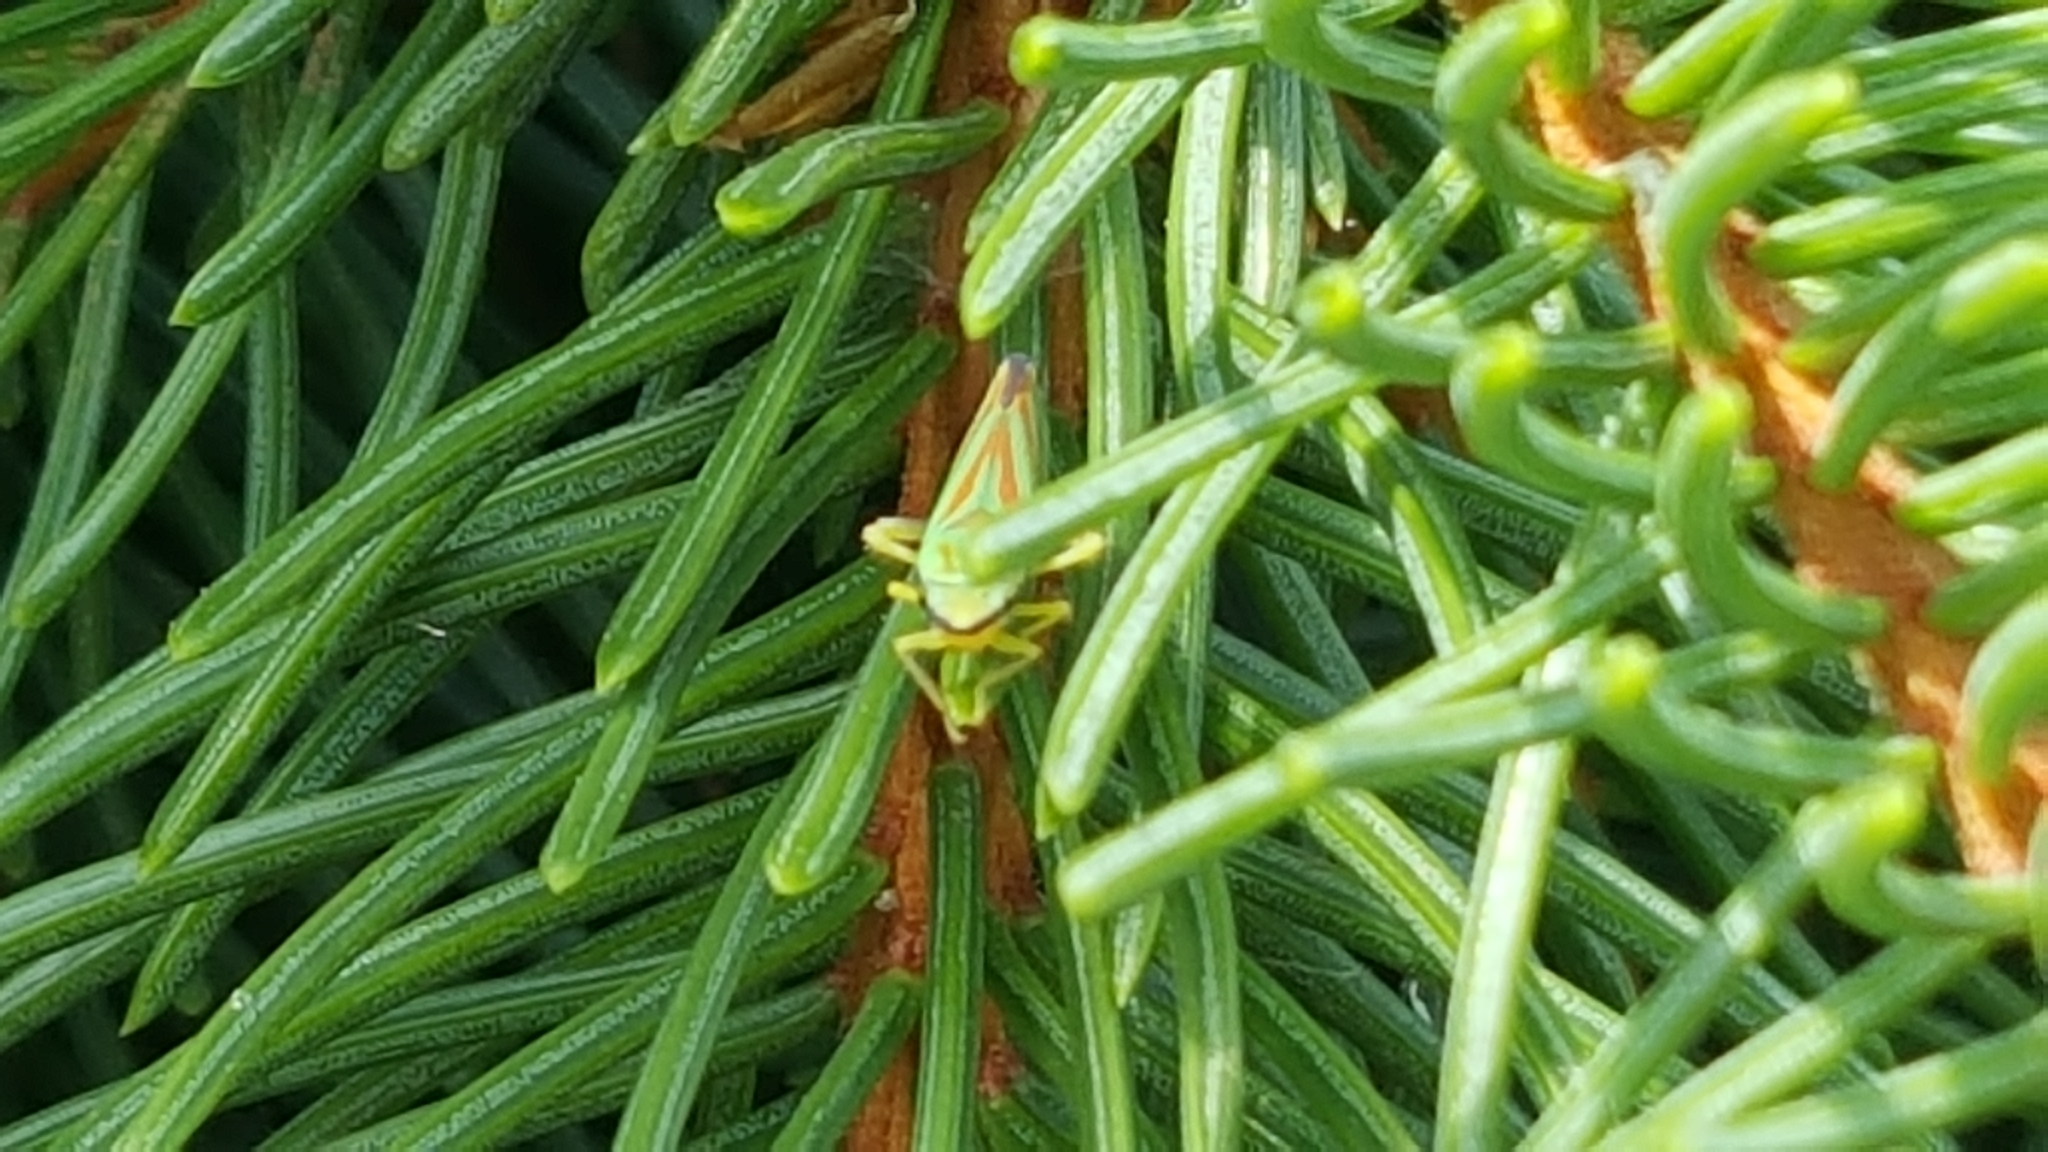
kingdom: Animalia
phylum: Arthropoda
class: Insecta
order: Hemiptera
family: Cicadellidae
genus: Graphocephala
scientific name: Graphocephala fennahi
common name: Rhododendron leafhopper
